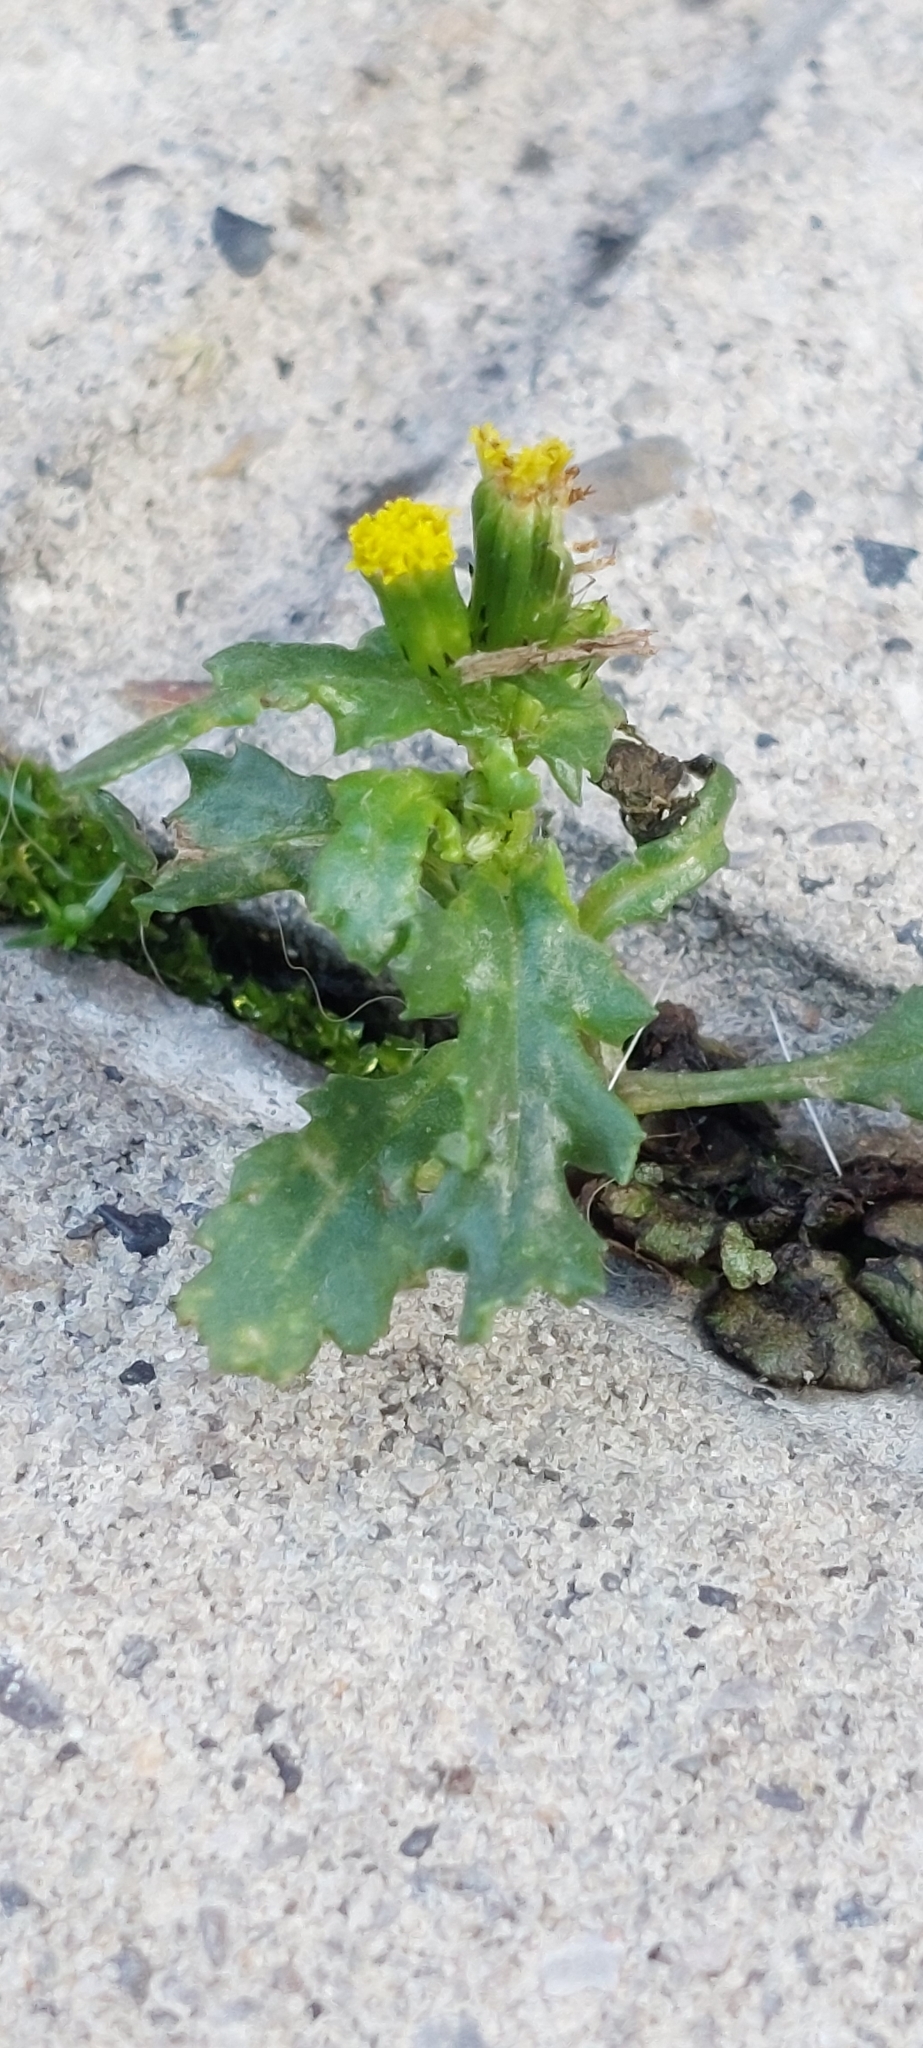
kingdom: Plantae
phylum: Tracheophyta
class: Magnoliopsida
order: Asterales
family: Asteraceae
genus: Senecio
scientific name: Senecio vulgaris
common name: Old-man-in-the-spring
